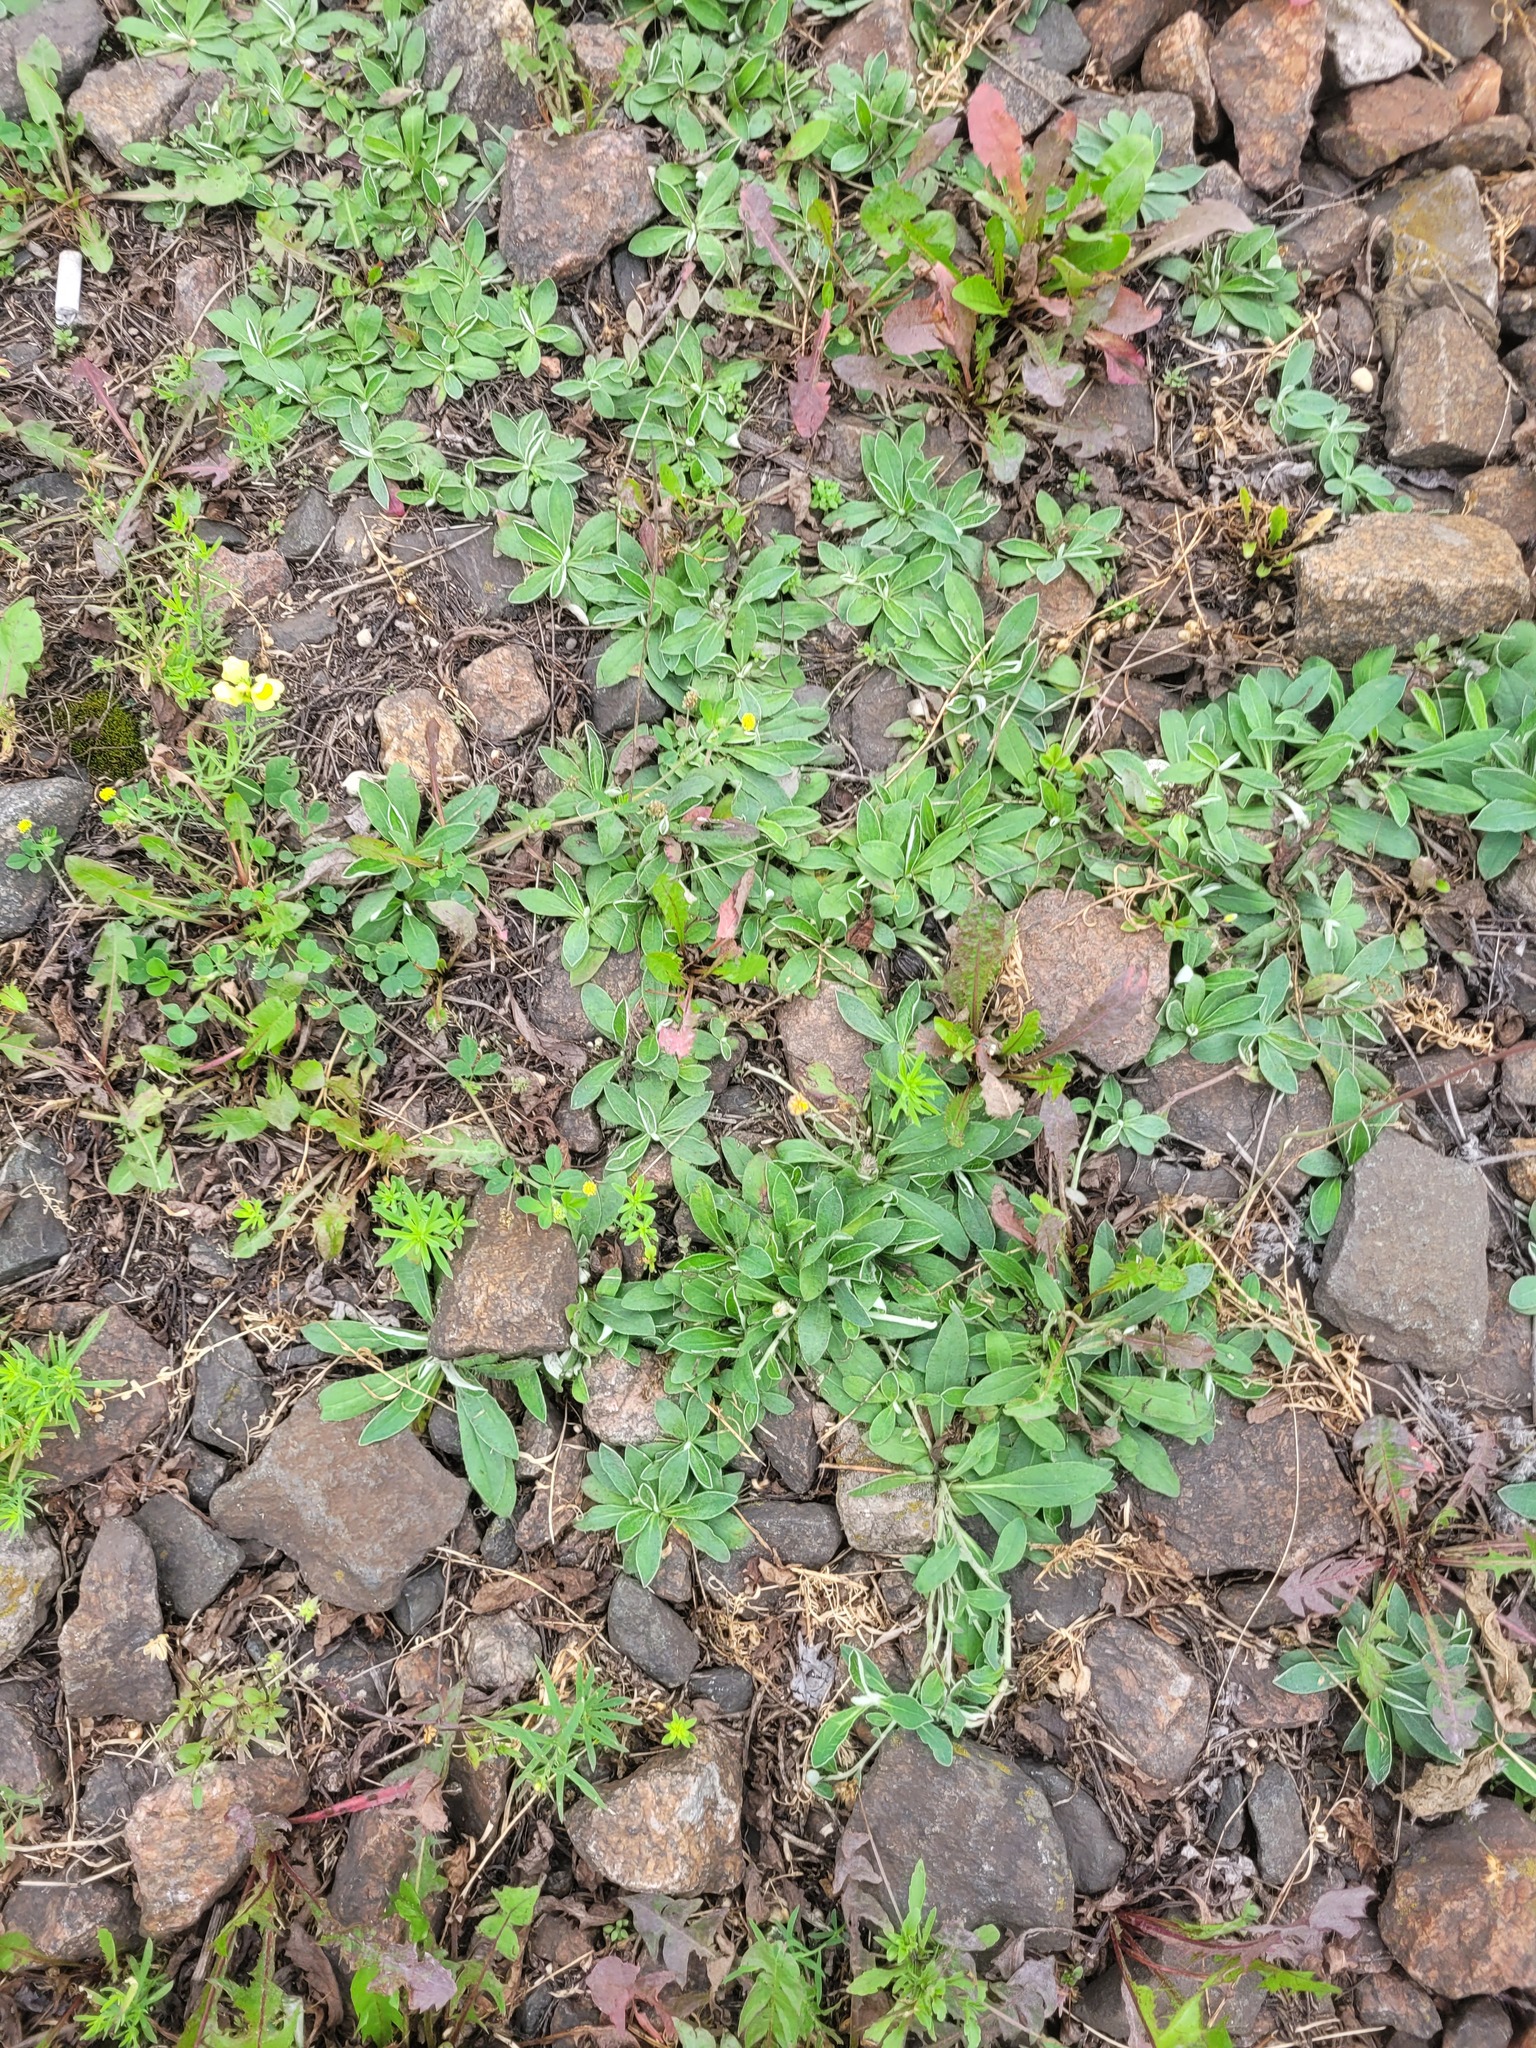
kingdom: Plantae
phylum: Tracheophyta
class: Magnoliopsida
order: Asterales
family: Asteraceae
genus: Pilosella
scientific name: Pilosella officinarum
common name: Mouse-ear hawkweed
